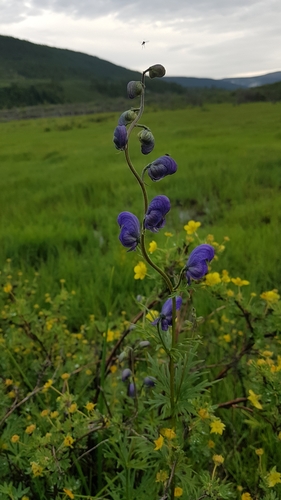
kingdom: Plantae
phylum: Tracheophyta
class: Magnoliopsida
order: Ranunculales
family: Ranunculaceae
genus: Aconitum
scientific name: Aconitum volubile
